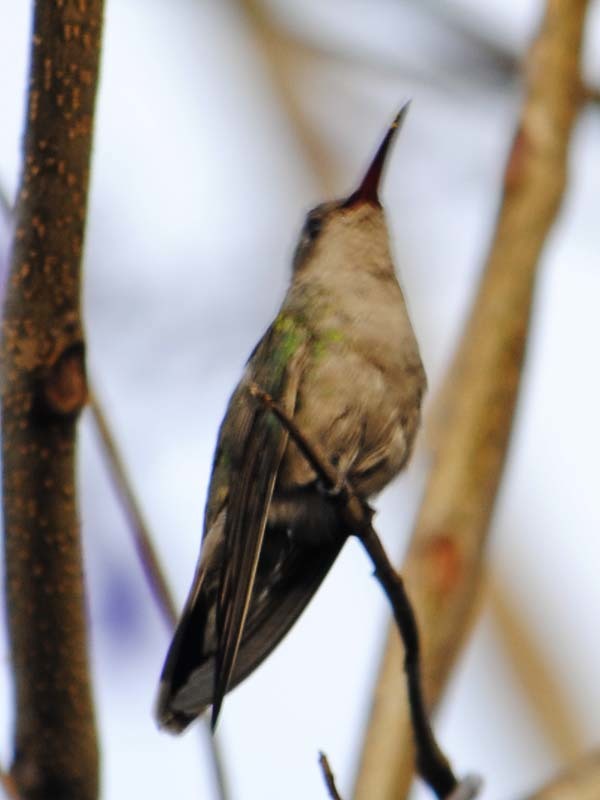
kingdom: Animalia
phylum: Chordata
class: Aves
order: Apodiformes
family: Trochilidae
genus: Cynanthus
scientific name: Cynanthus latirostris
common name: Broad-billed hummingbird
